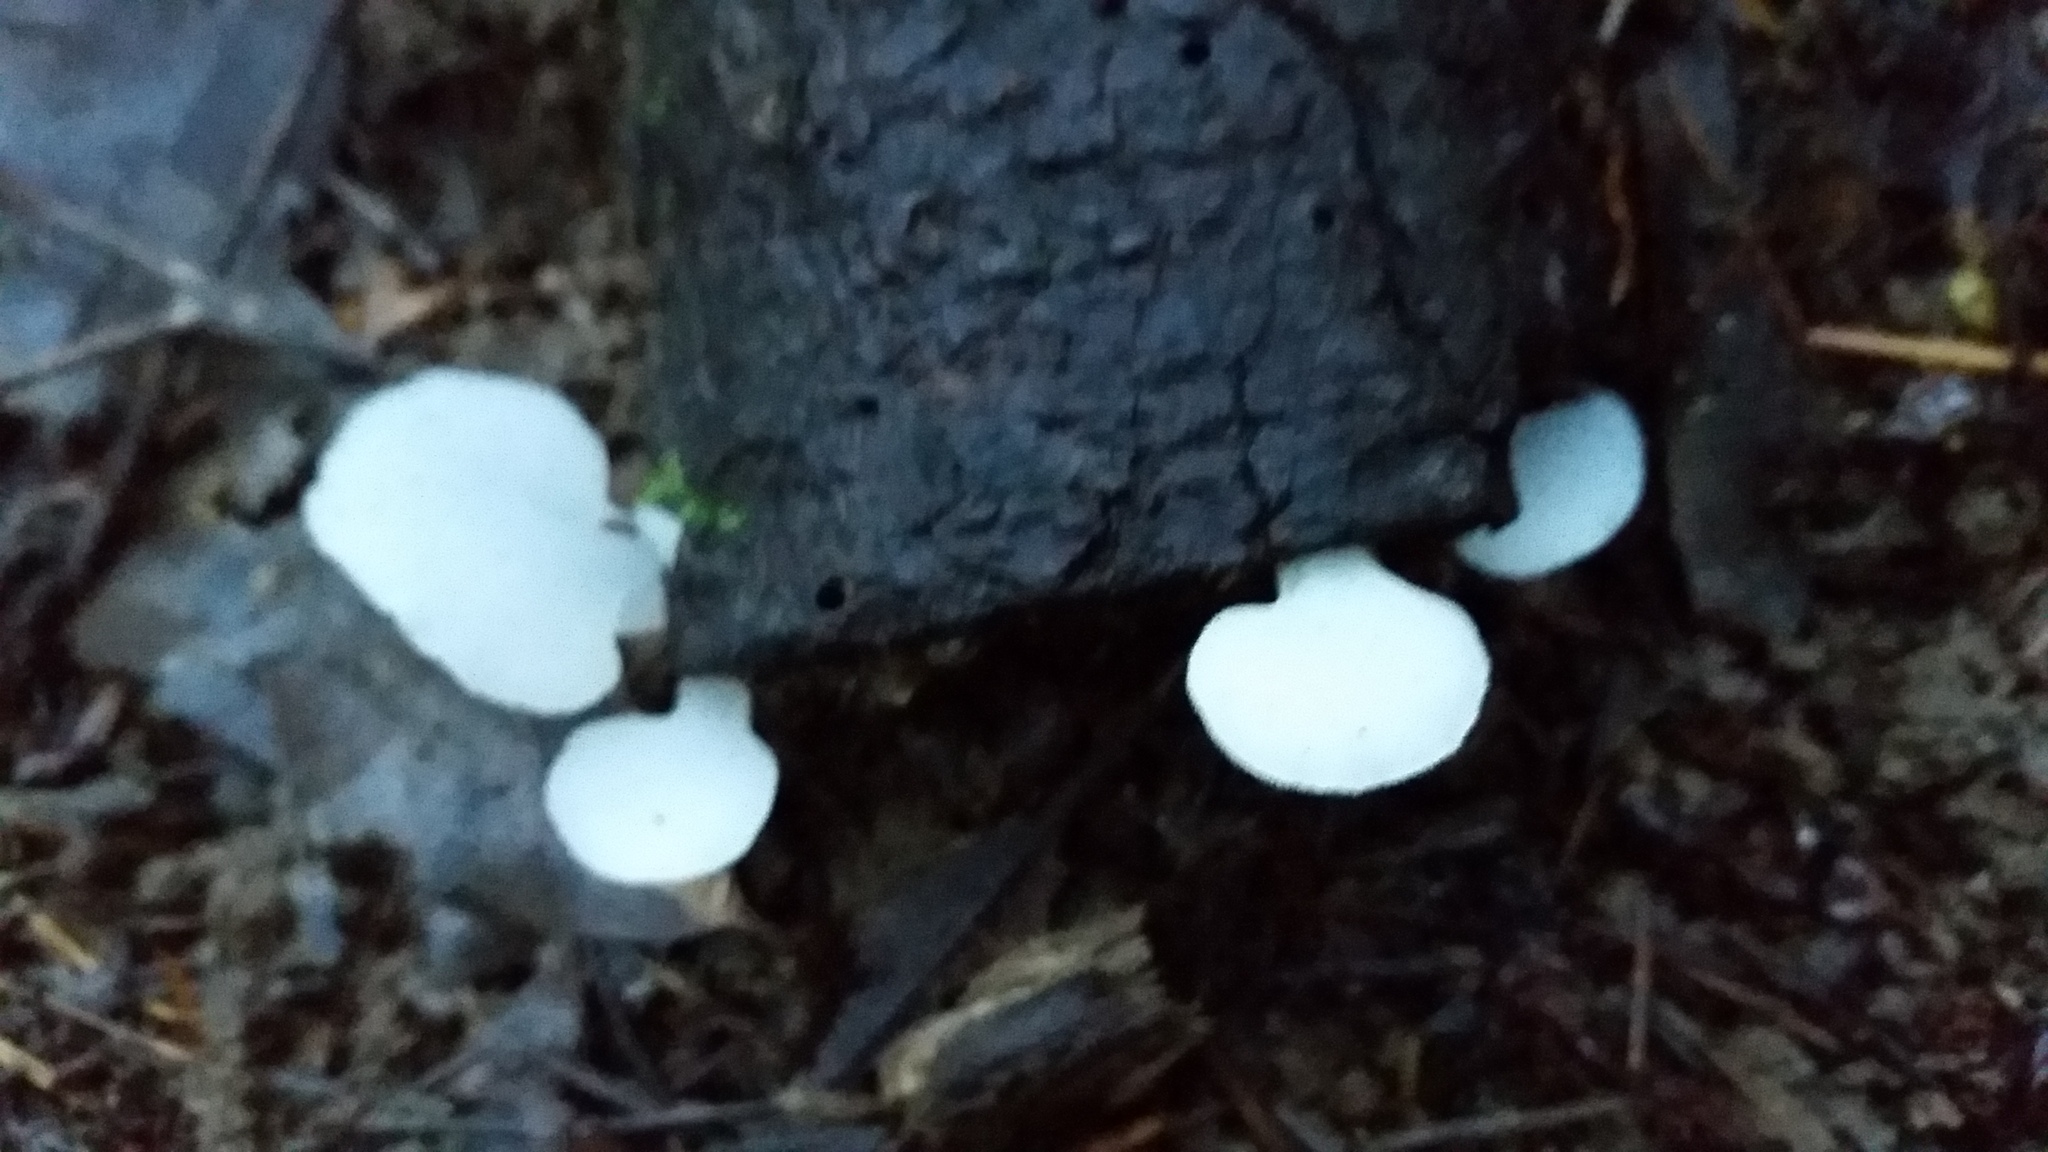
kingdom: Fungi
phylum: Basidiomycota
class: Agaricomycetes
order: Auriculariales
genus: Pseudohydnum
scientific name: Pseudohydnum gelatinosum
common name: Jelly tongue
